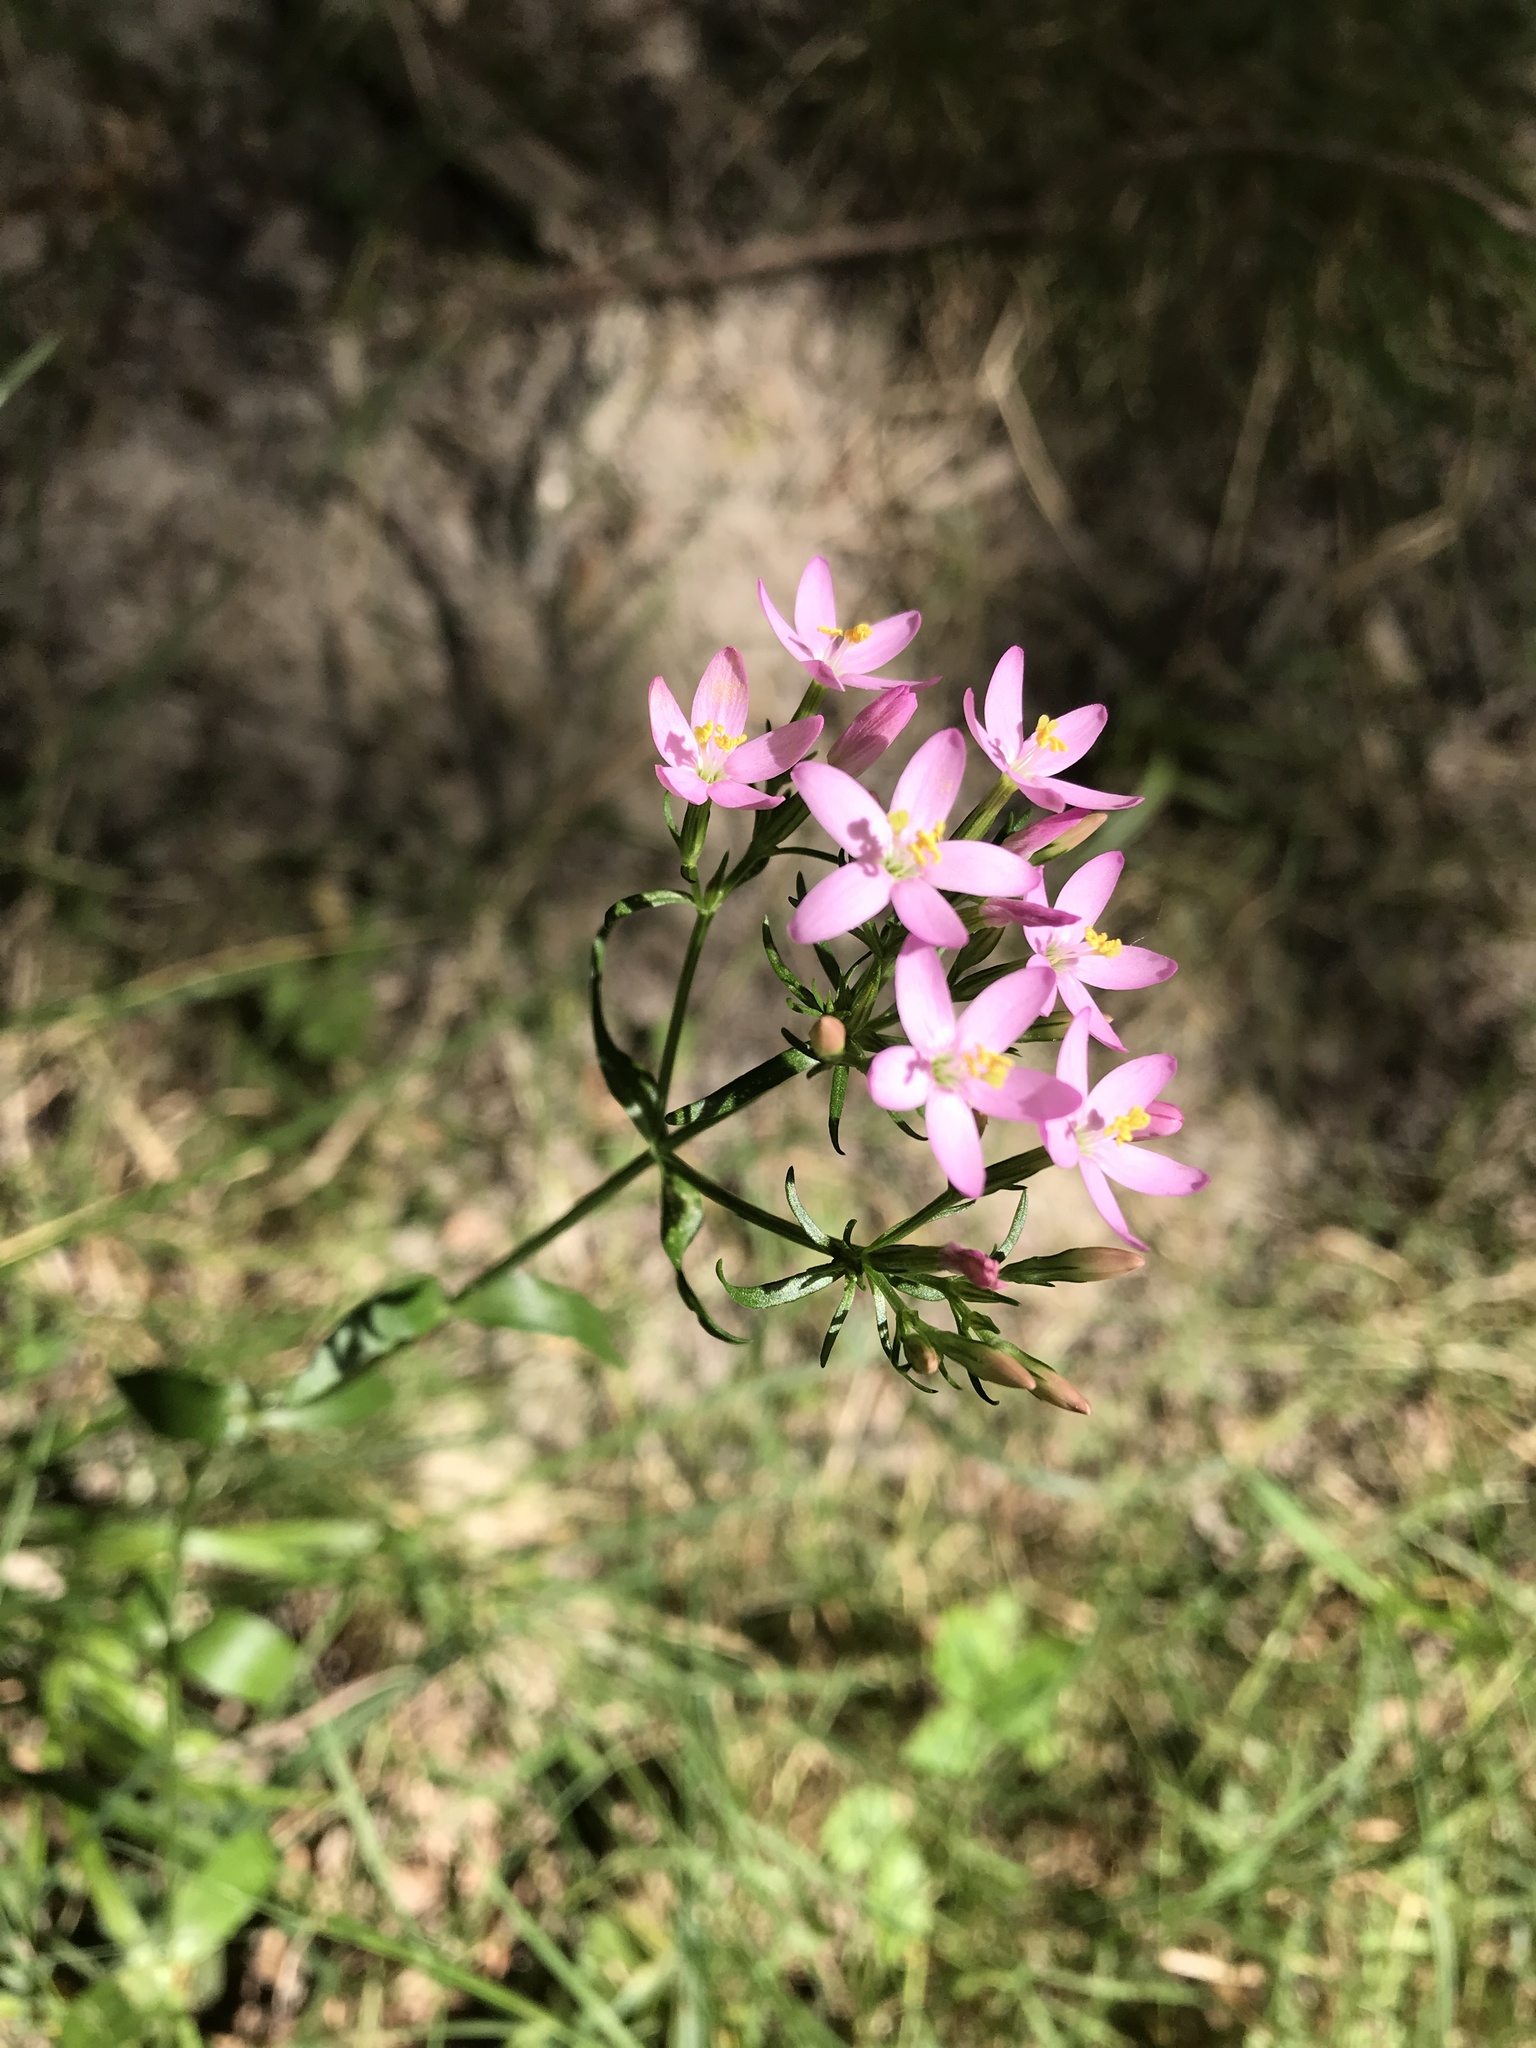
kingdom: Plantae
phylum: Tracheophyta
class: Magnoliopsida
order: Gentianales
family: Gentianaceae
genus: Centaurium
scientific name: Centaurium erythraea
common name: Common centaury
